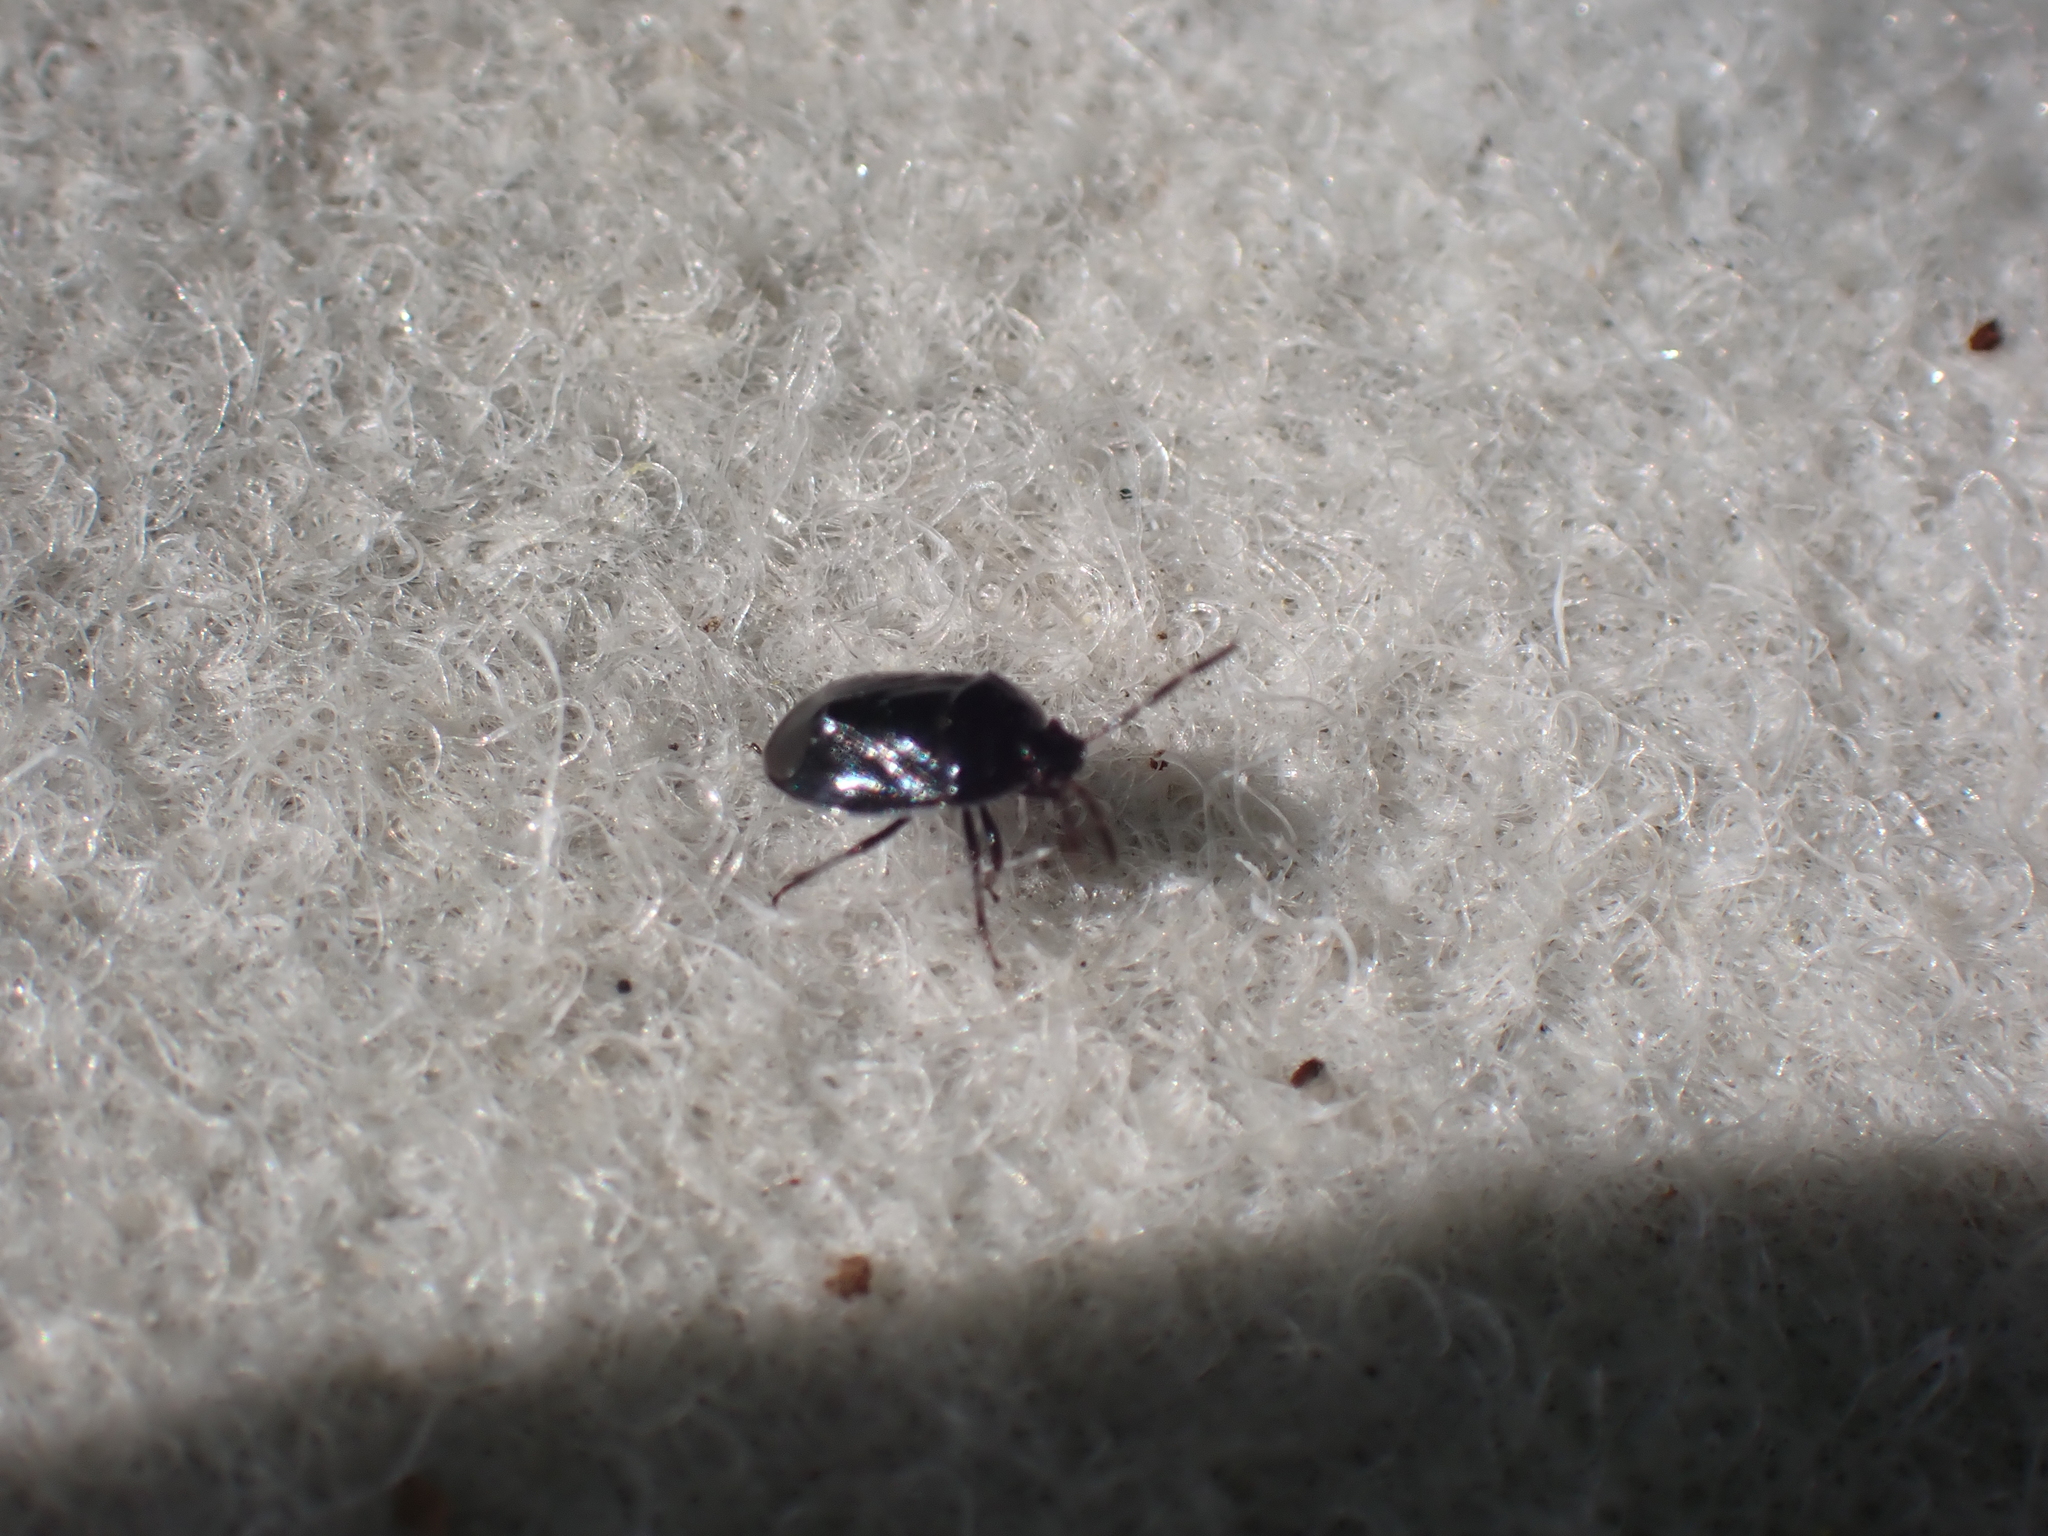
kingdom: Animalia
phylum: Arthropoda
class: Insecta
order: Hemiptera
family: Cydnidae
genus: Sehirus
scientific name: Sehirus cinctus
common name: White-margined burrower bug
